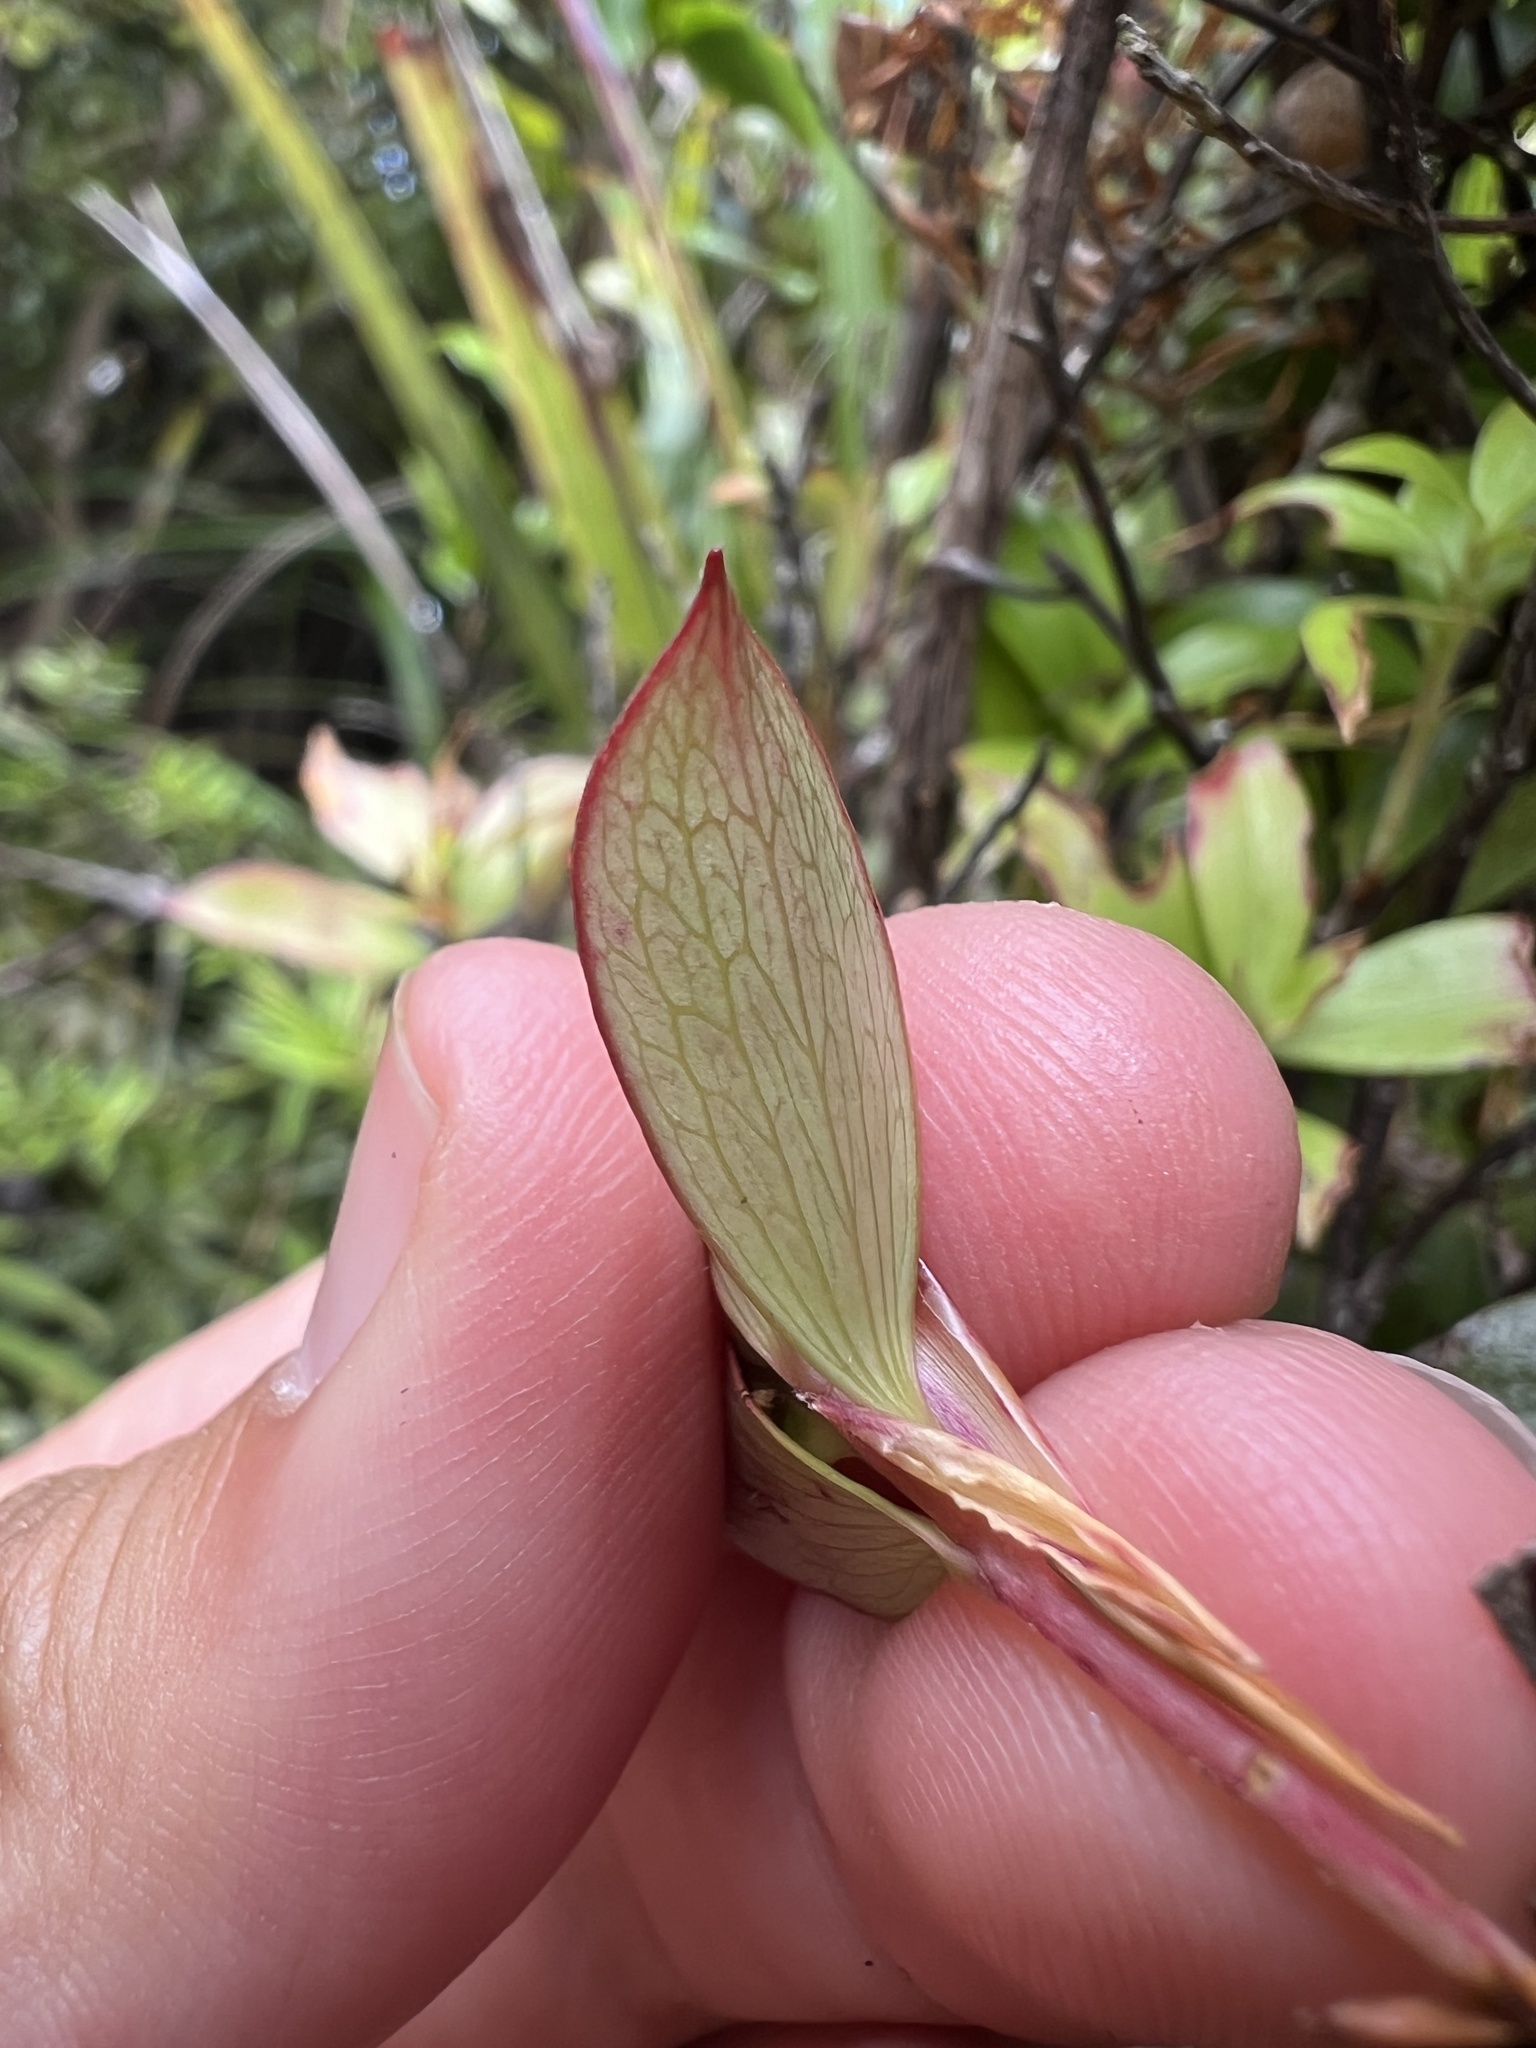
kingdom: Plantae
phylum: Tracheophyta
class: Magnoliopsida
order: Ericales
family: Ericaceae
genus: Archeria
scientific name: Archeria racemosa
